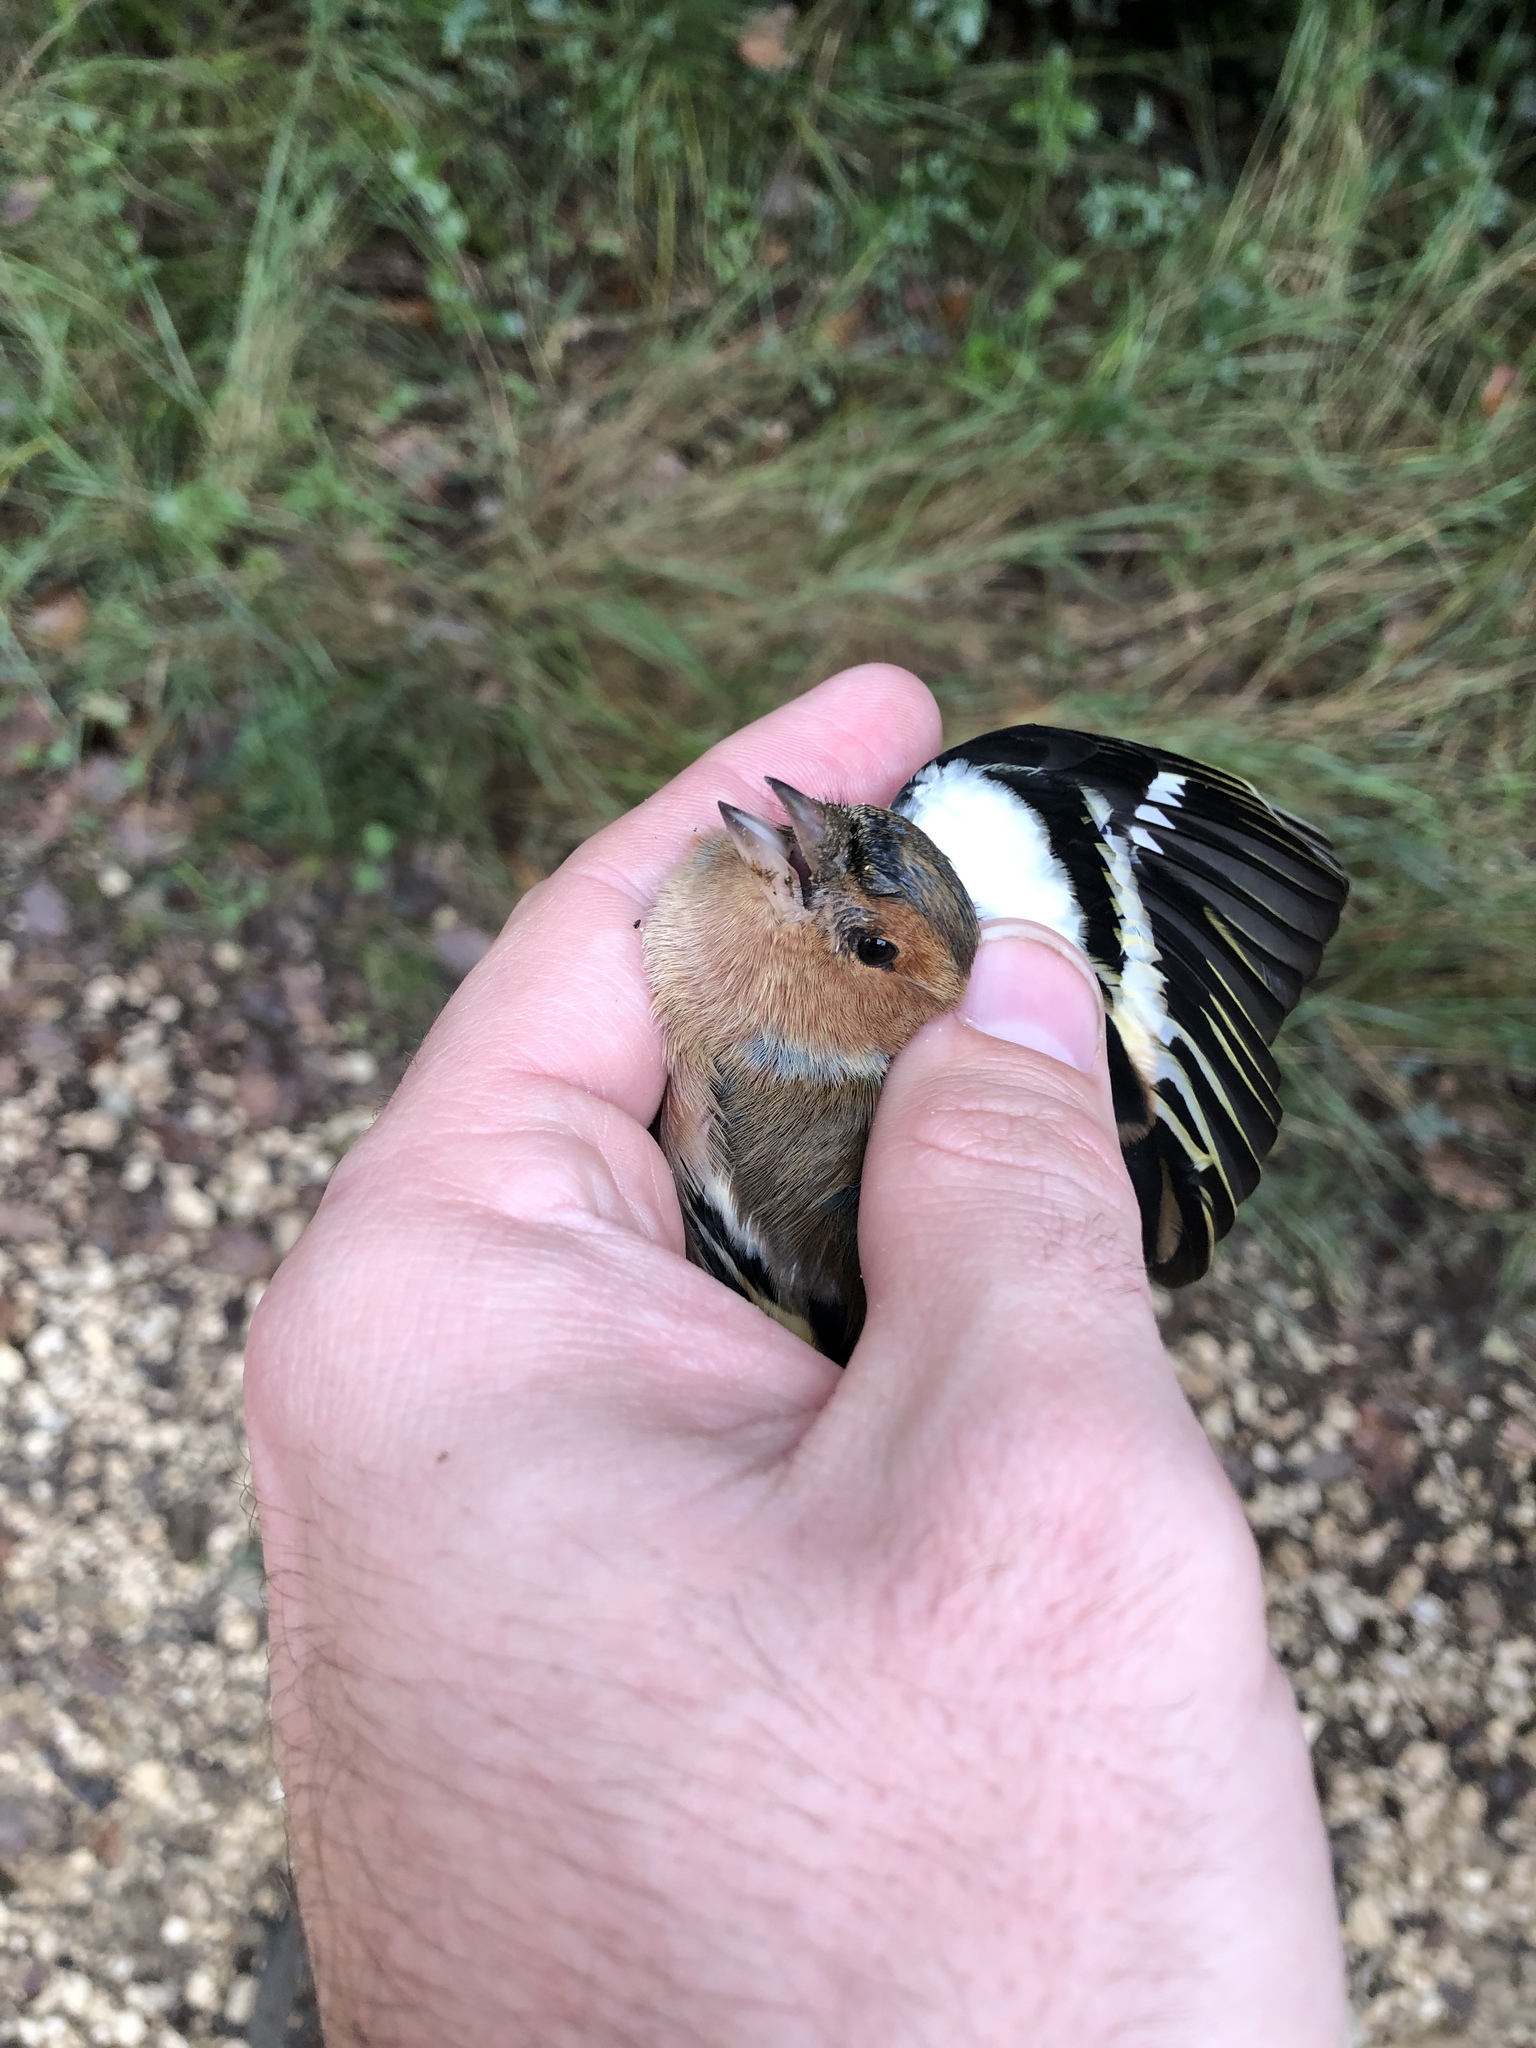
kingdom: Animalia
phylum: Chordata
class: Aves
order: Passeriformes
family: Fringillidae
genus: Fringilla
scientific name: Fringilla coelebs
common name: Common chaffinch
